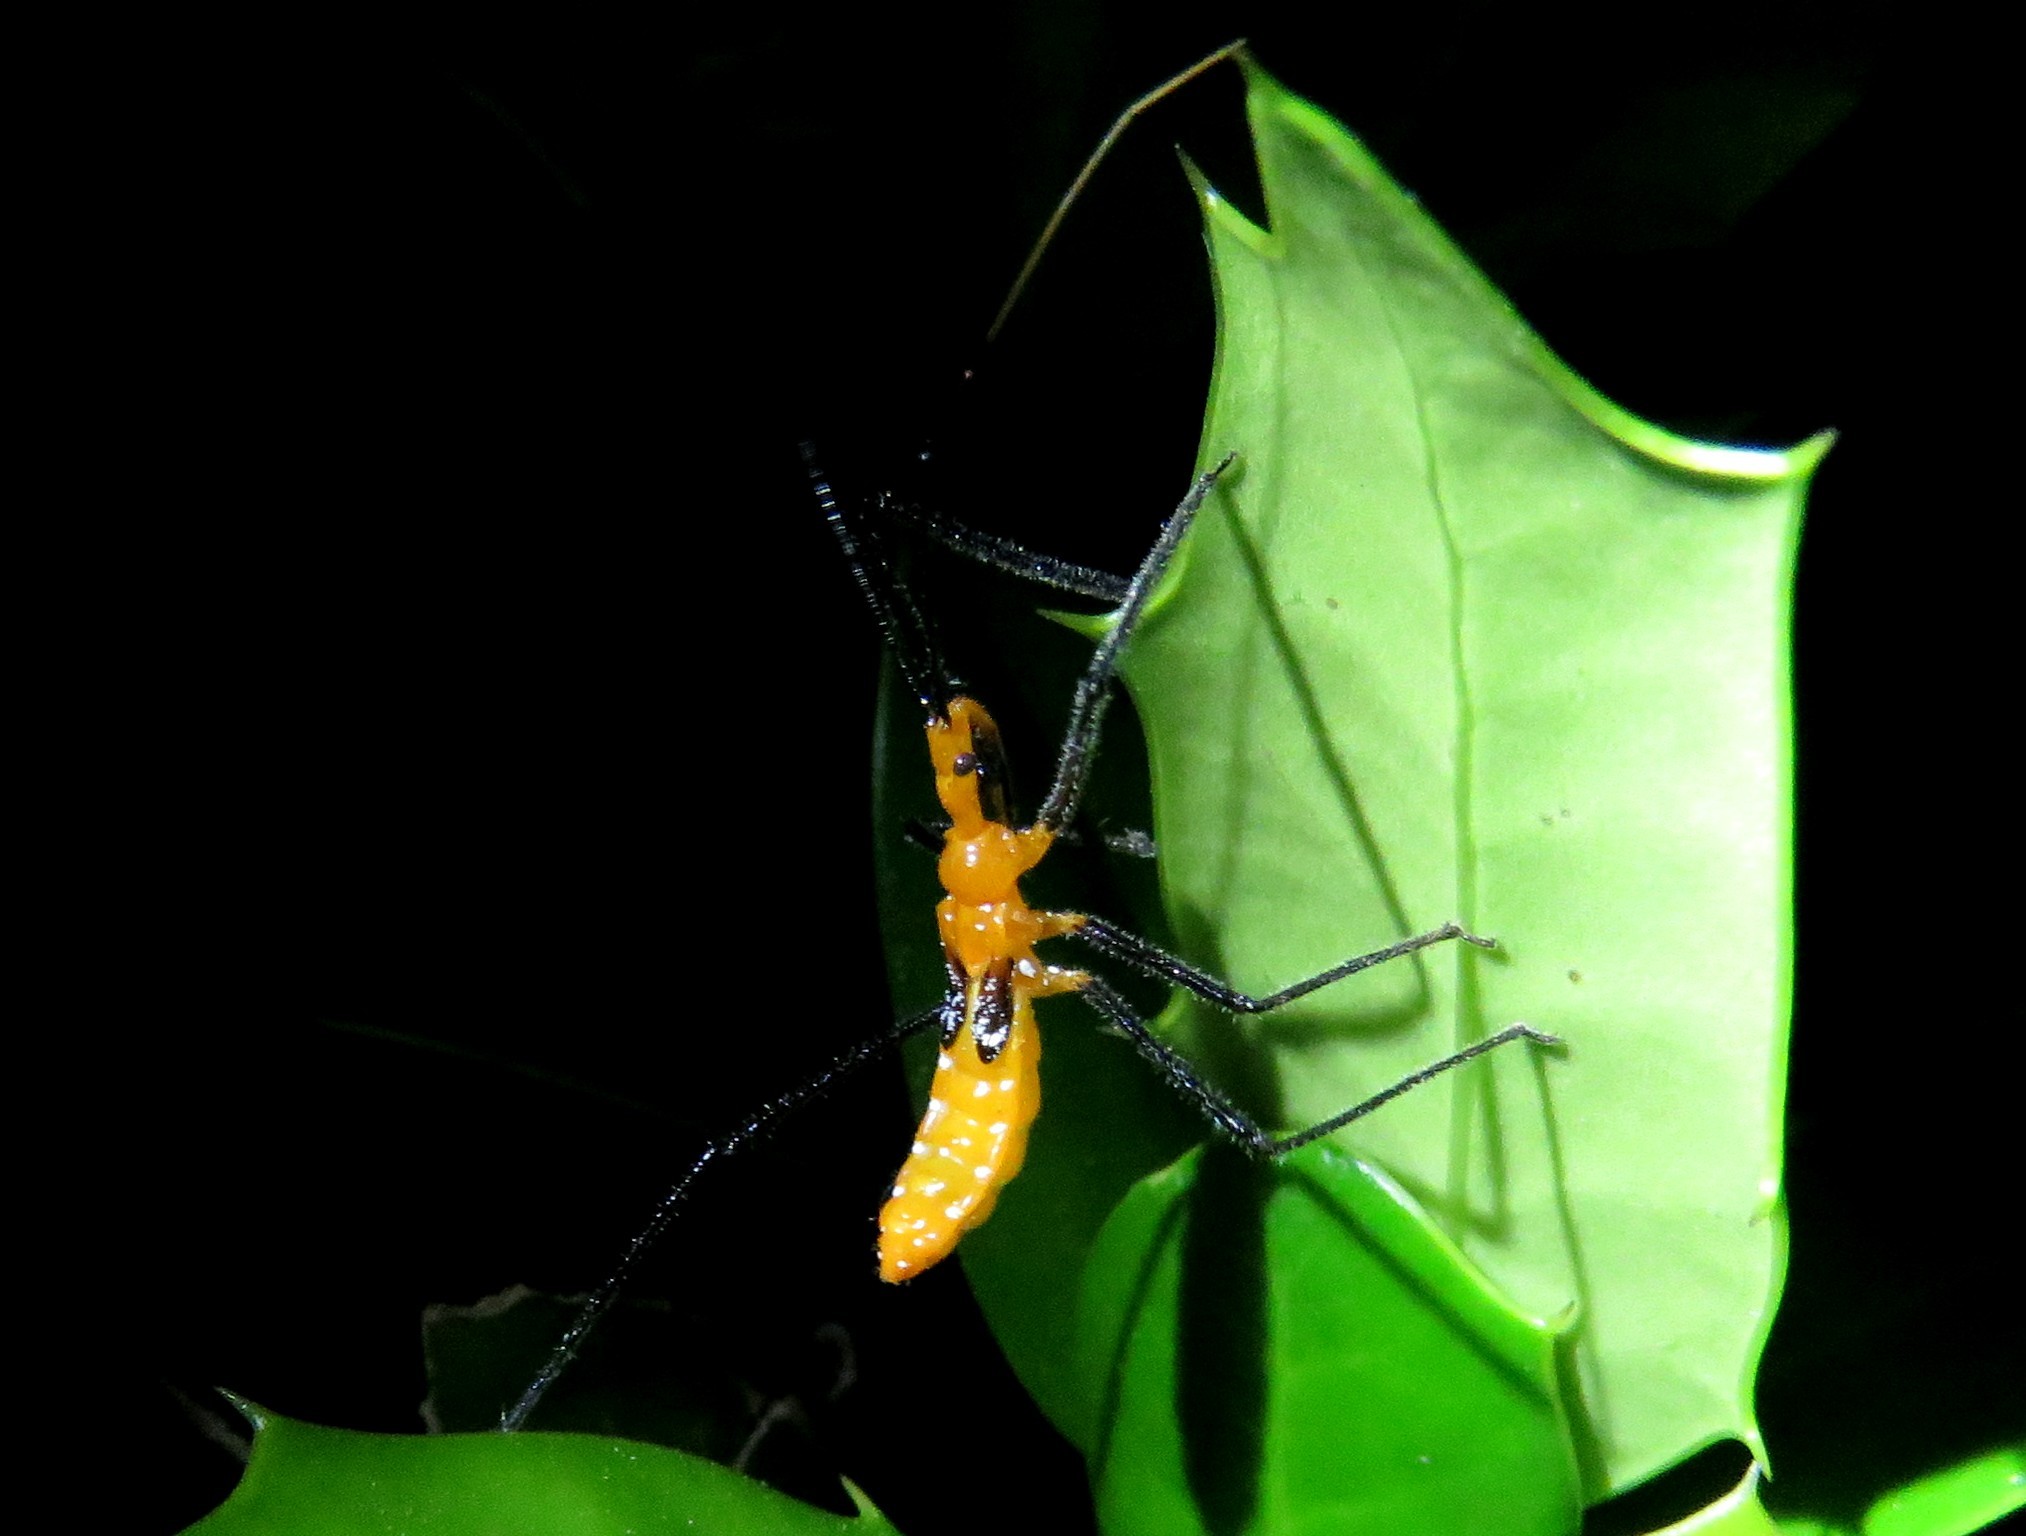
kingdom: Animalia
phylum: Arthropoda
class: Insecta
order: Hemiptera
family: Reduviidae
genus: Zelus
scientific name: Zelus longipes
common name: Milkweed assassin bug
